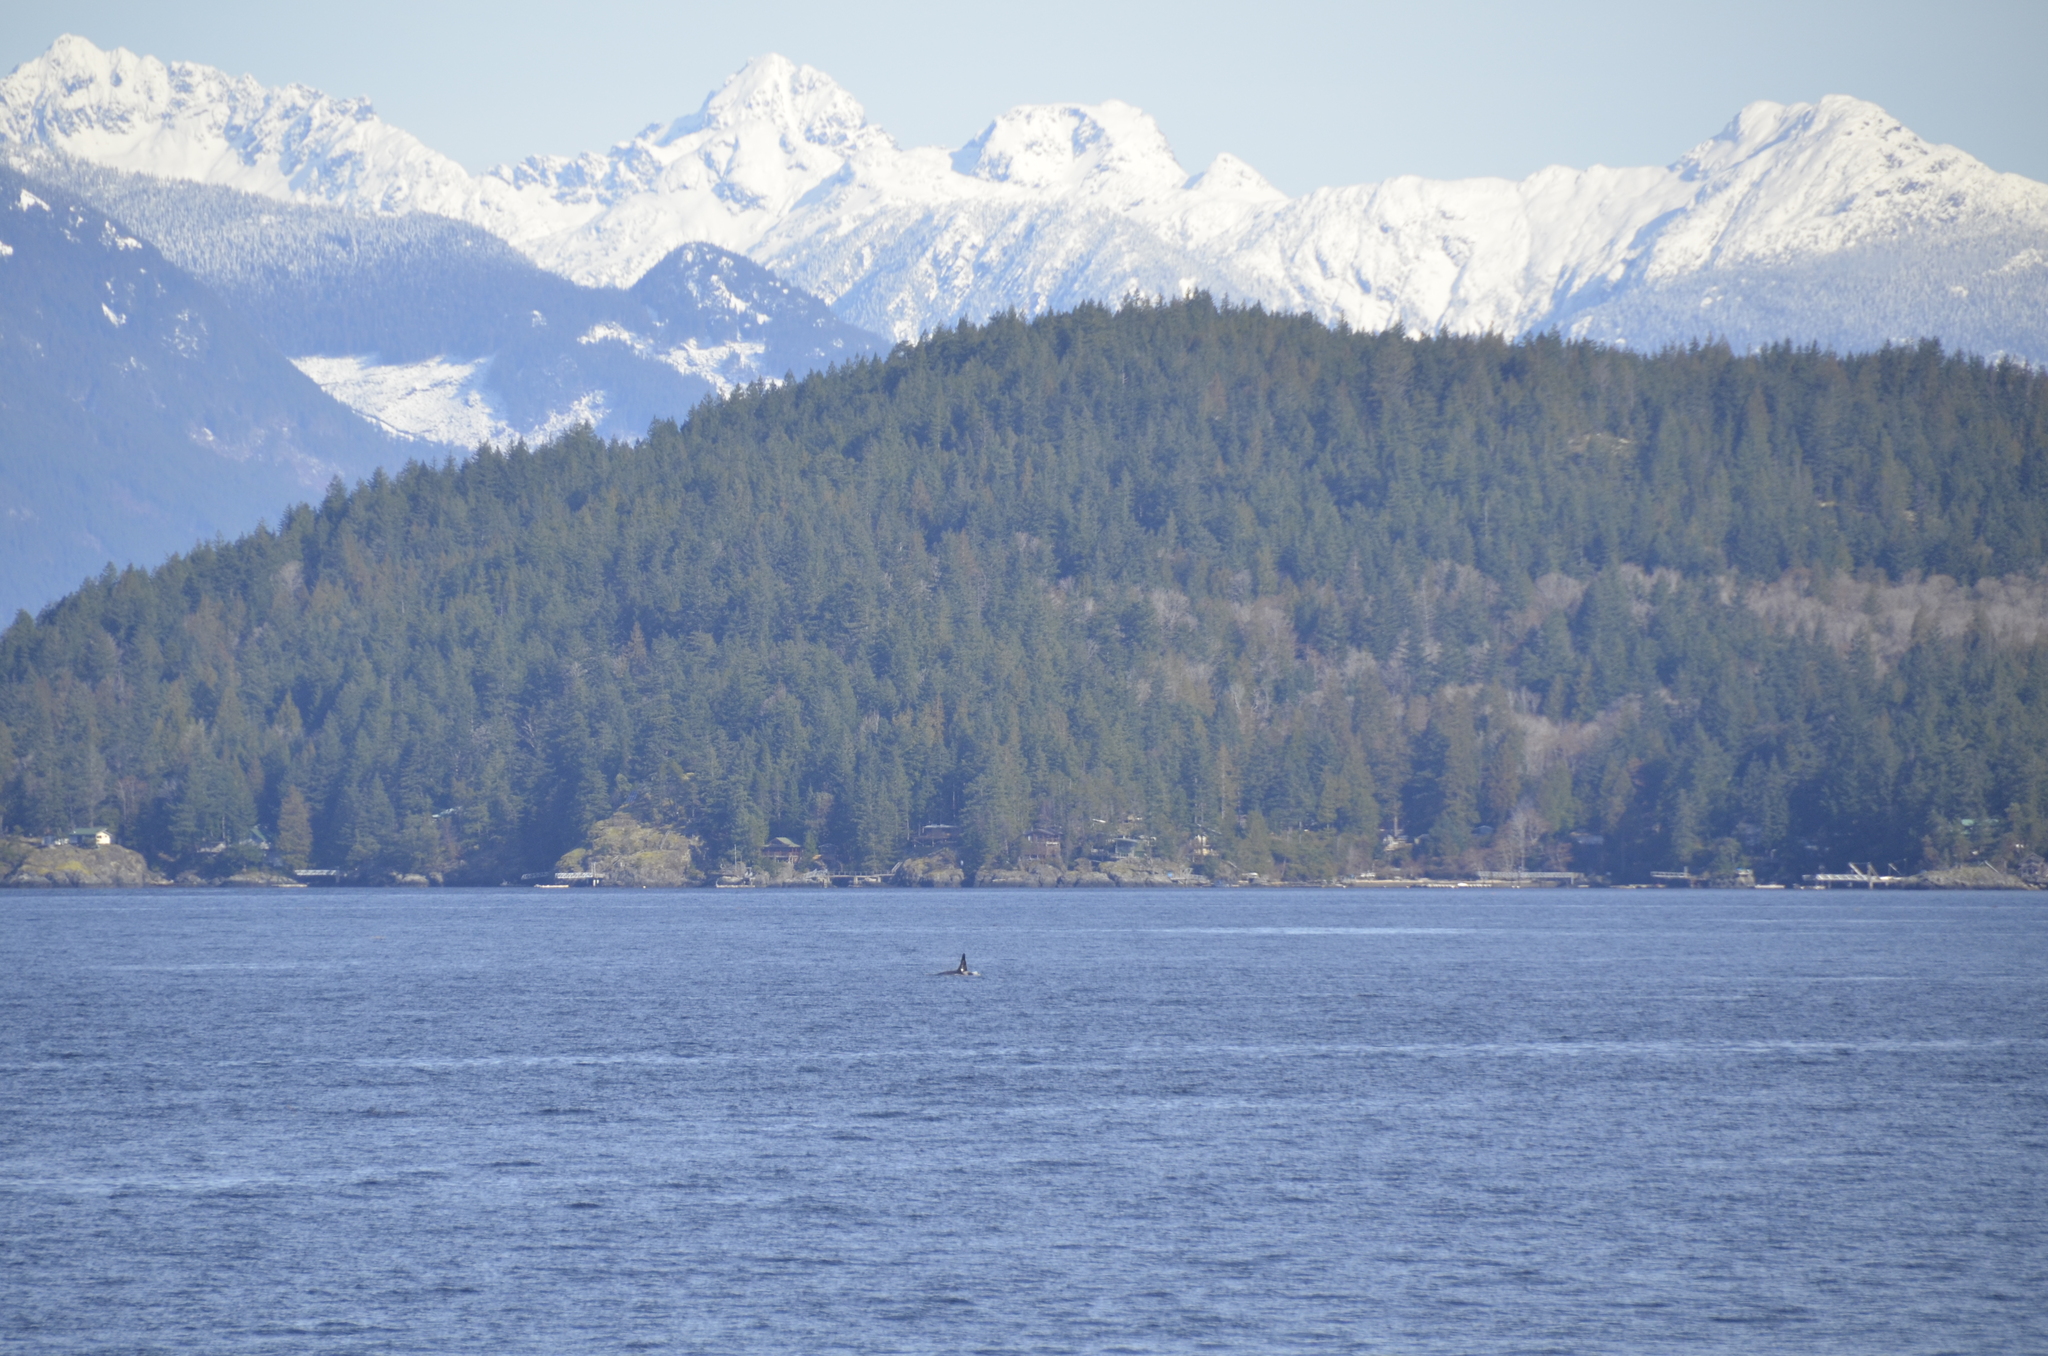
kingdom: Animalia
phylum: Chordata
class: Mammalia
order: Cetacea
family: Delphinidae
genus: Orcinus
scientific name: Orcinus orca
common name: Killer whale
